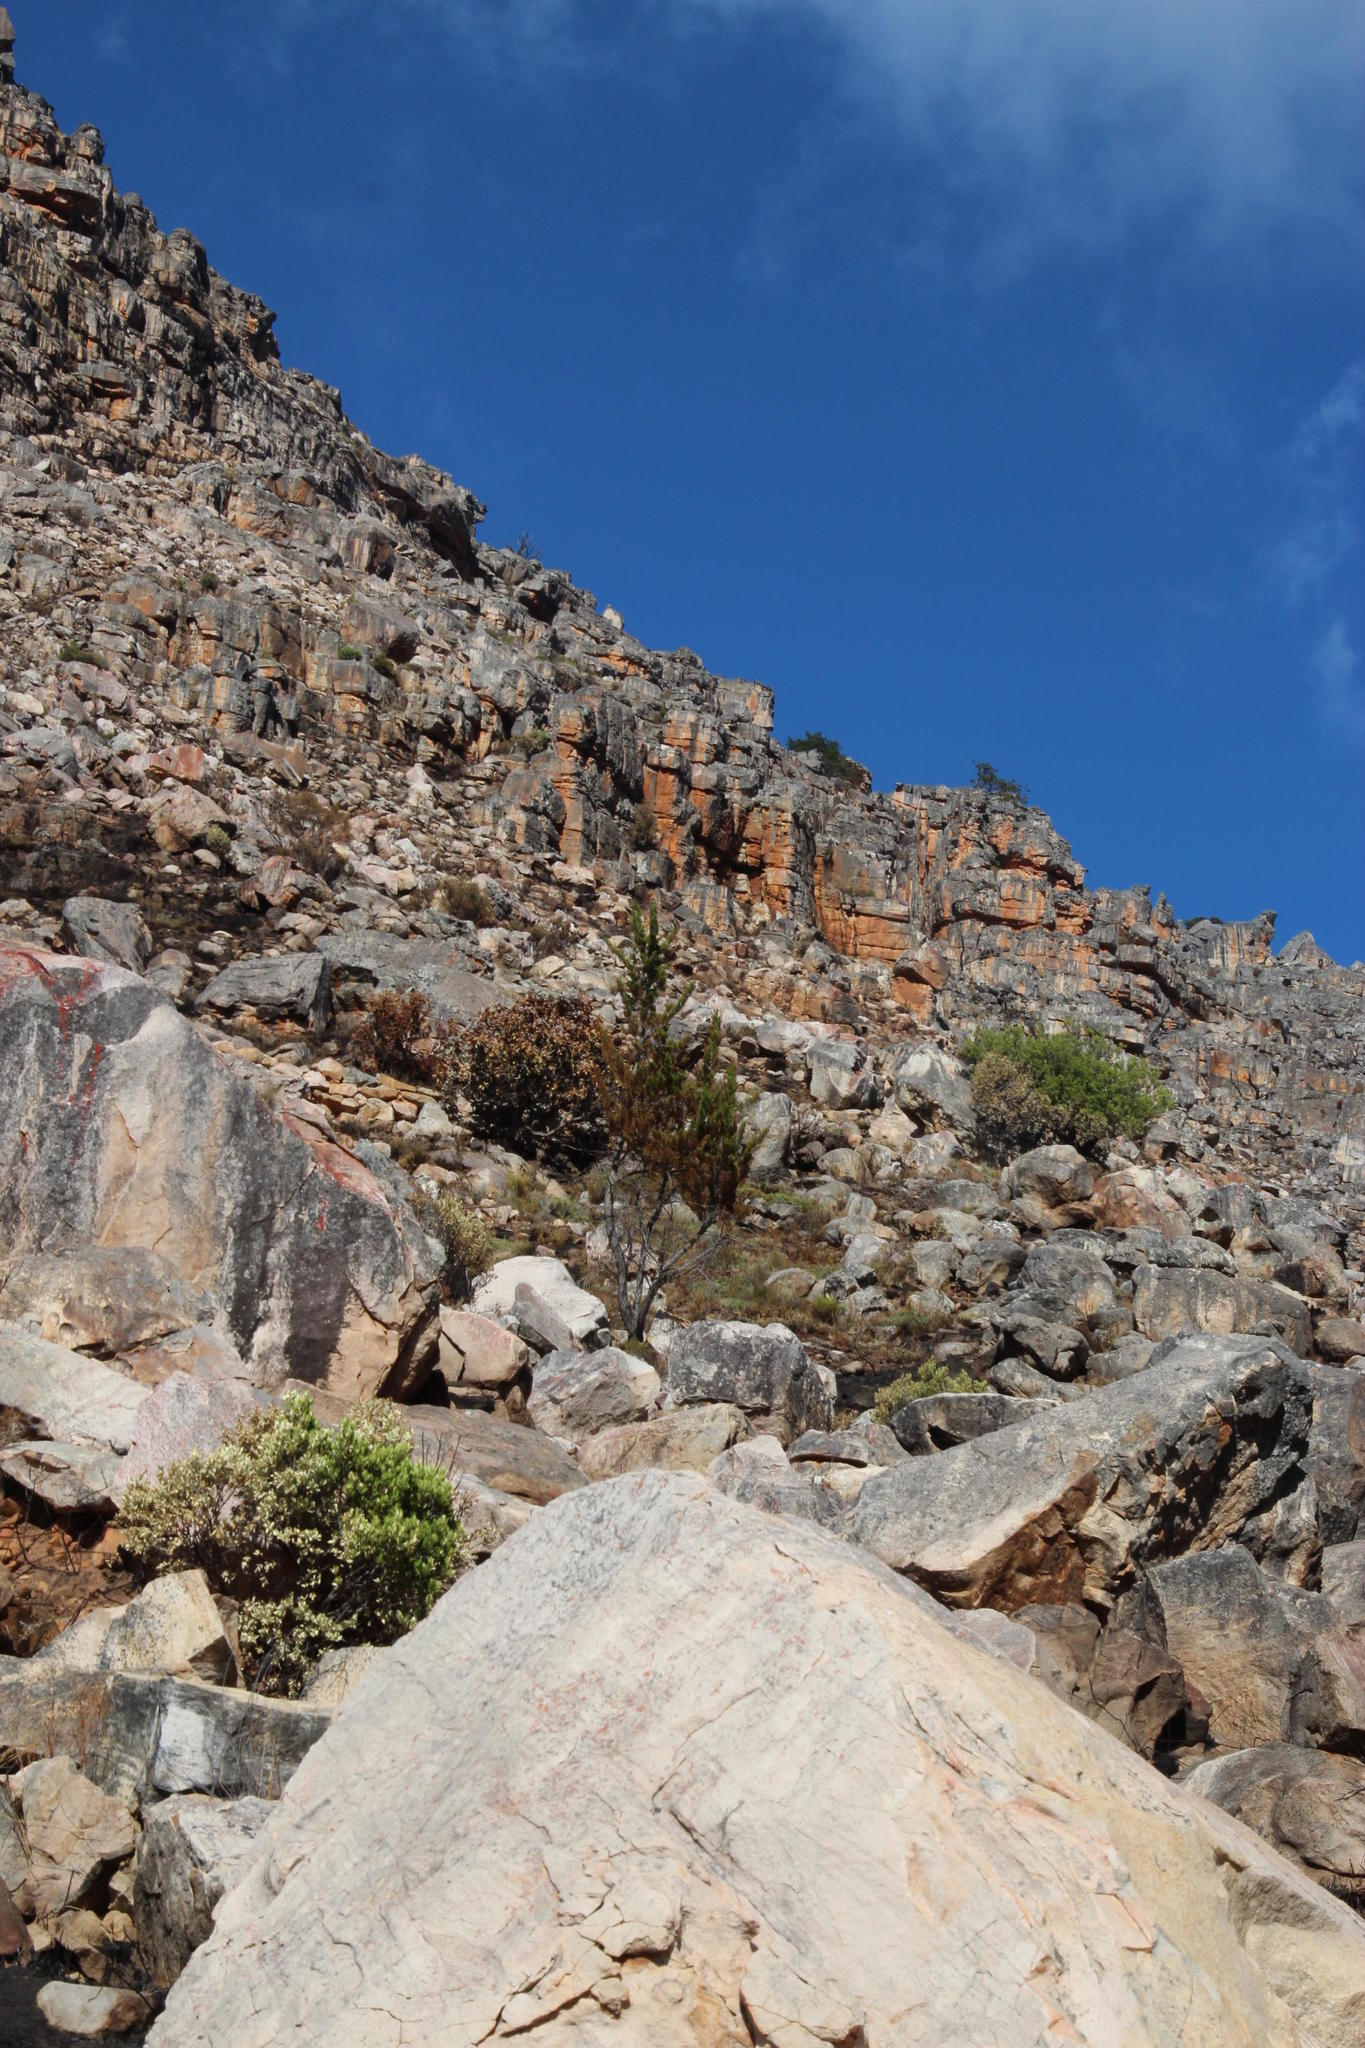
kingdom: Plantae
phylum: Tracheophyta
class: Pinopsida
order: Pinales
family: Cupressaceae
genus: Widdringtonia
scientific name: Widdringtonia nodiflora
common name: Cape cypress
